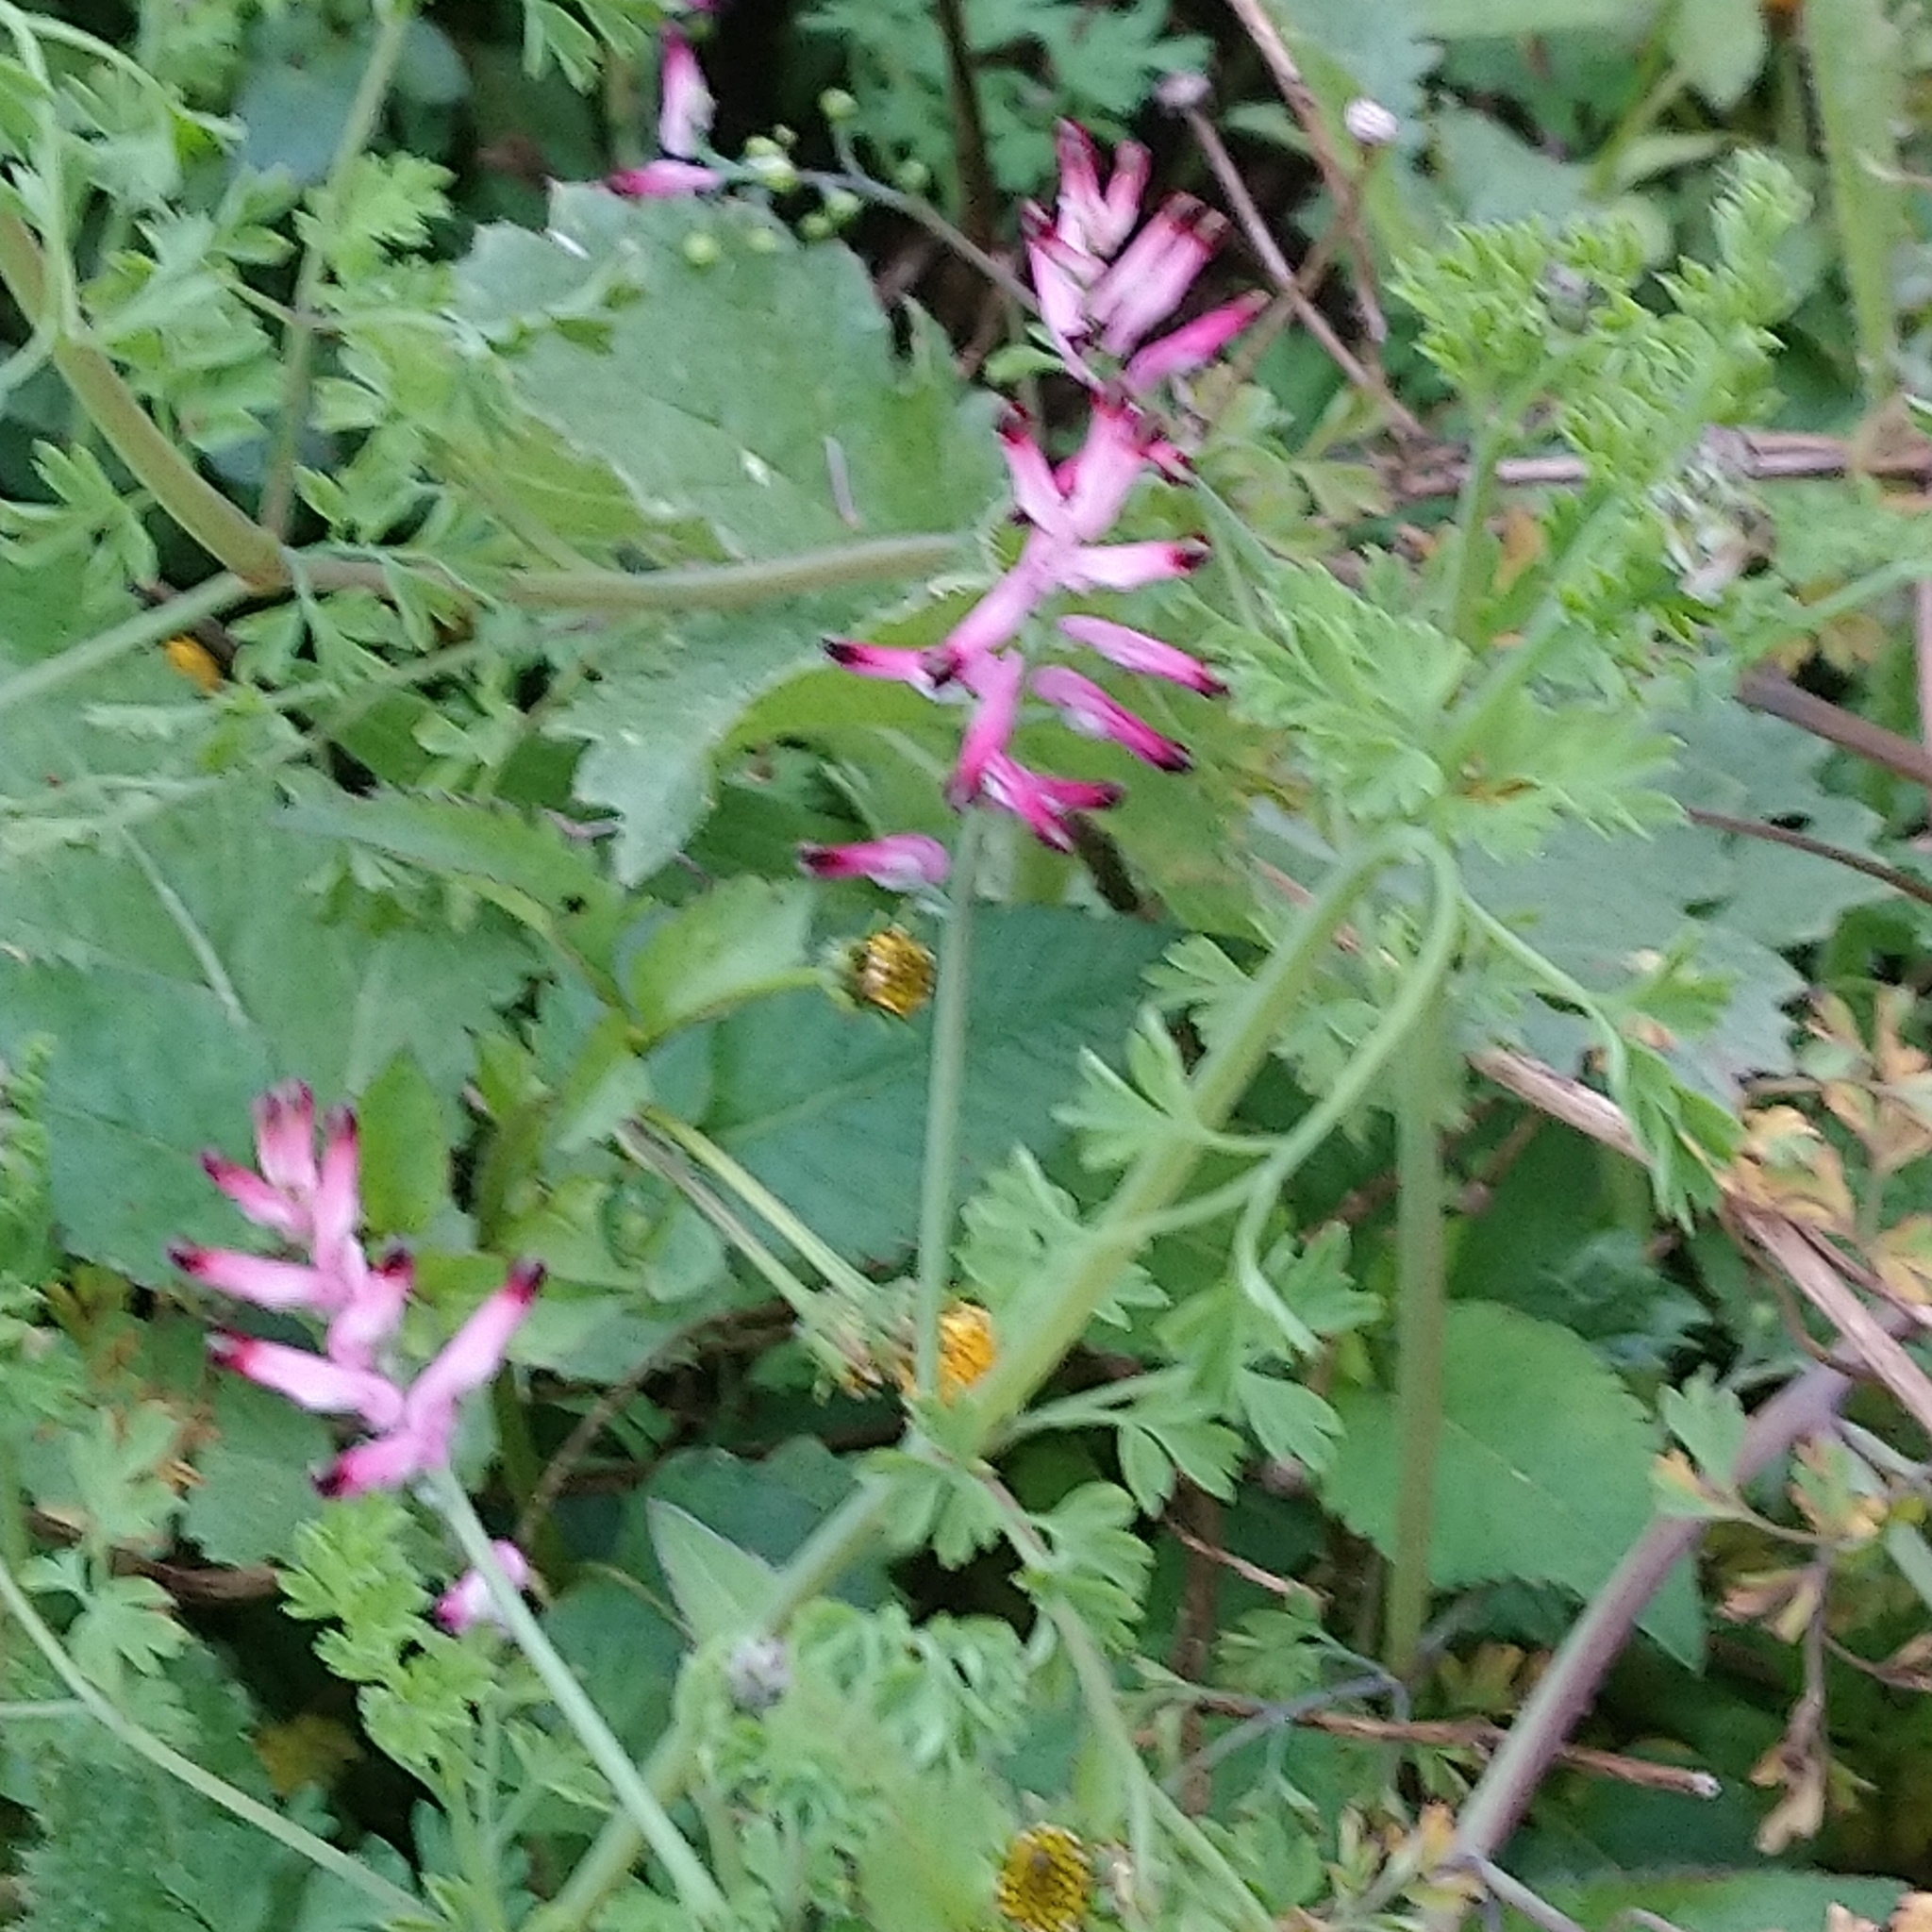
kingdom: Plantae
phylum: Tracheophyta
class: Magnoliopsida
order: Ranunculales
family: Papaveraceae
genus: Fumaria
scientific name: Fumaria muralis
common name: Common ramping-fumitory
